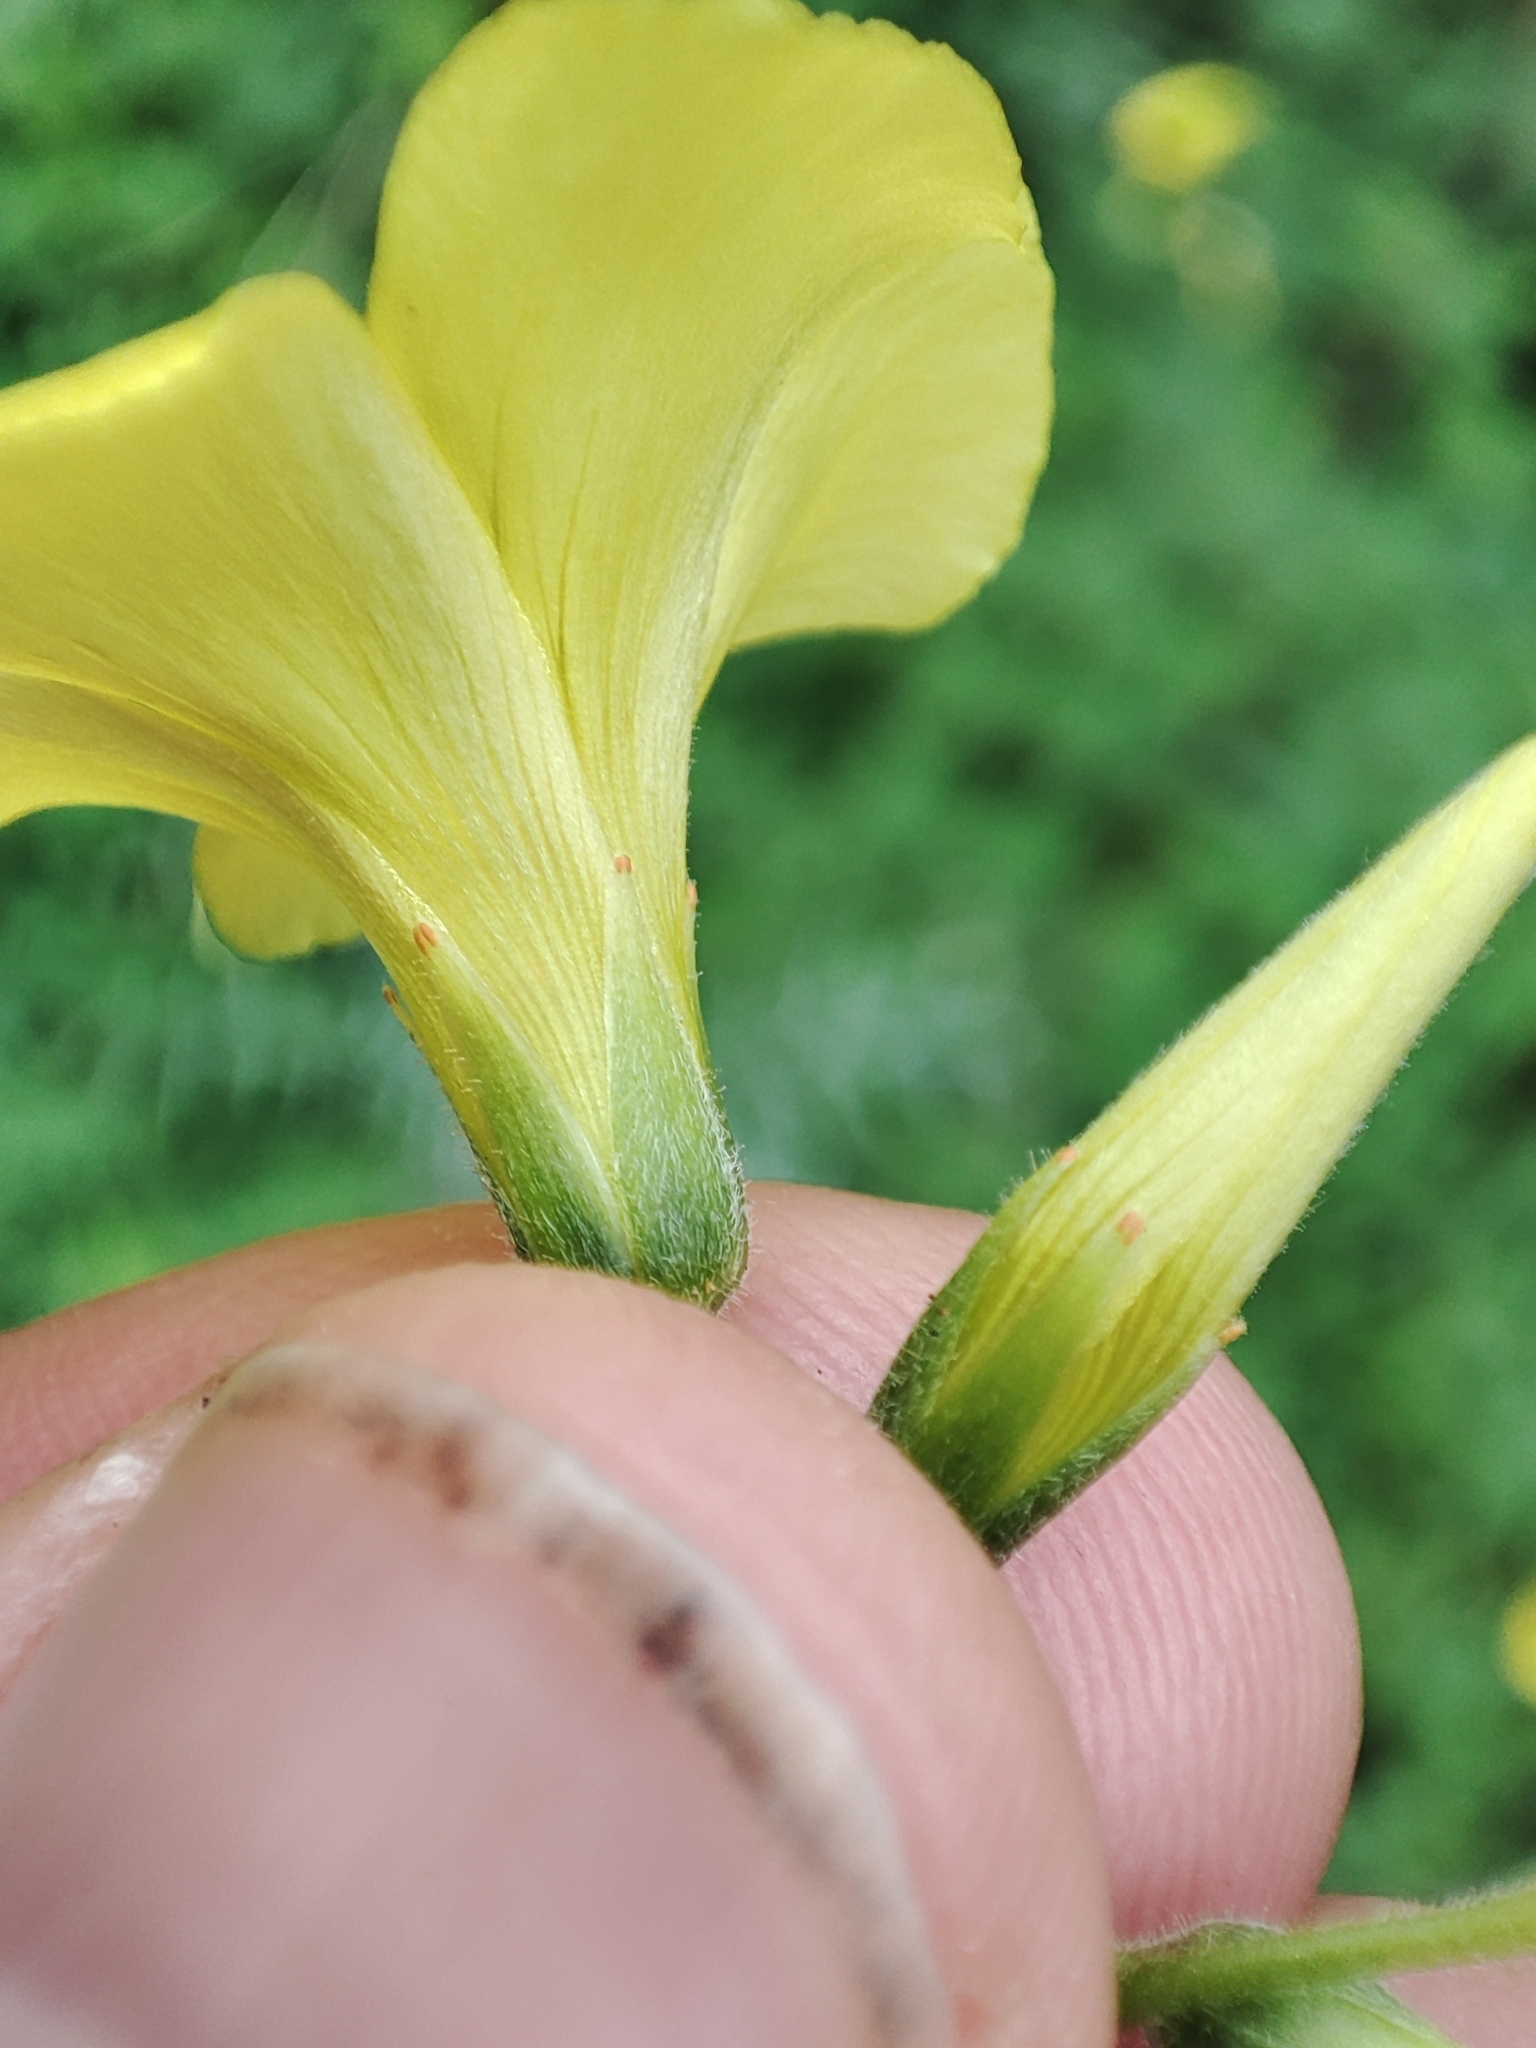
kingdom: Plantae
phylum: Tracheophyta
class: Magnoliopsida
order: Oxalidales
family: Oxalidaceae
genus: Oxalis
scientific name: Oxalis pes-caprae
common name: Bermuda-buttercup
